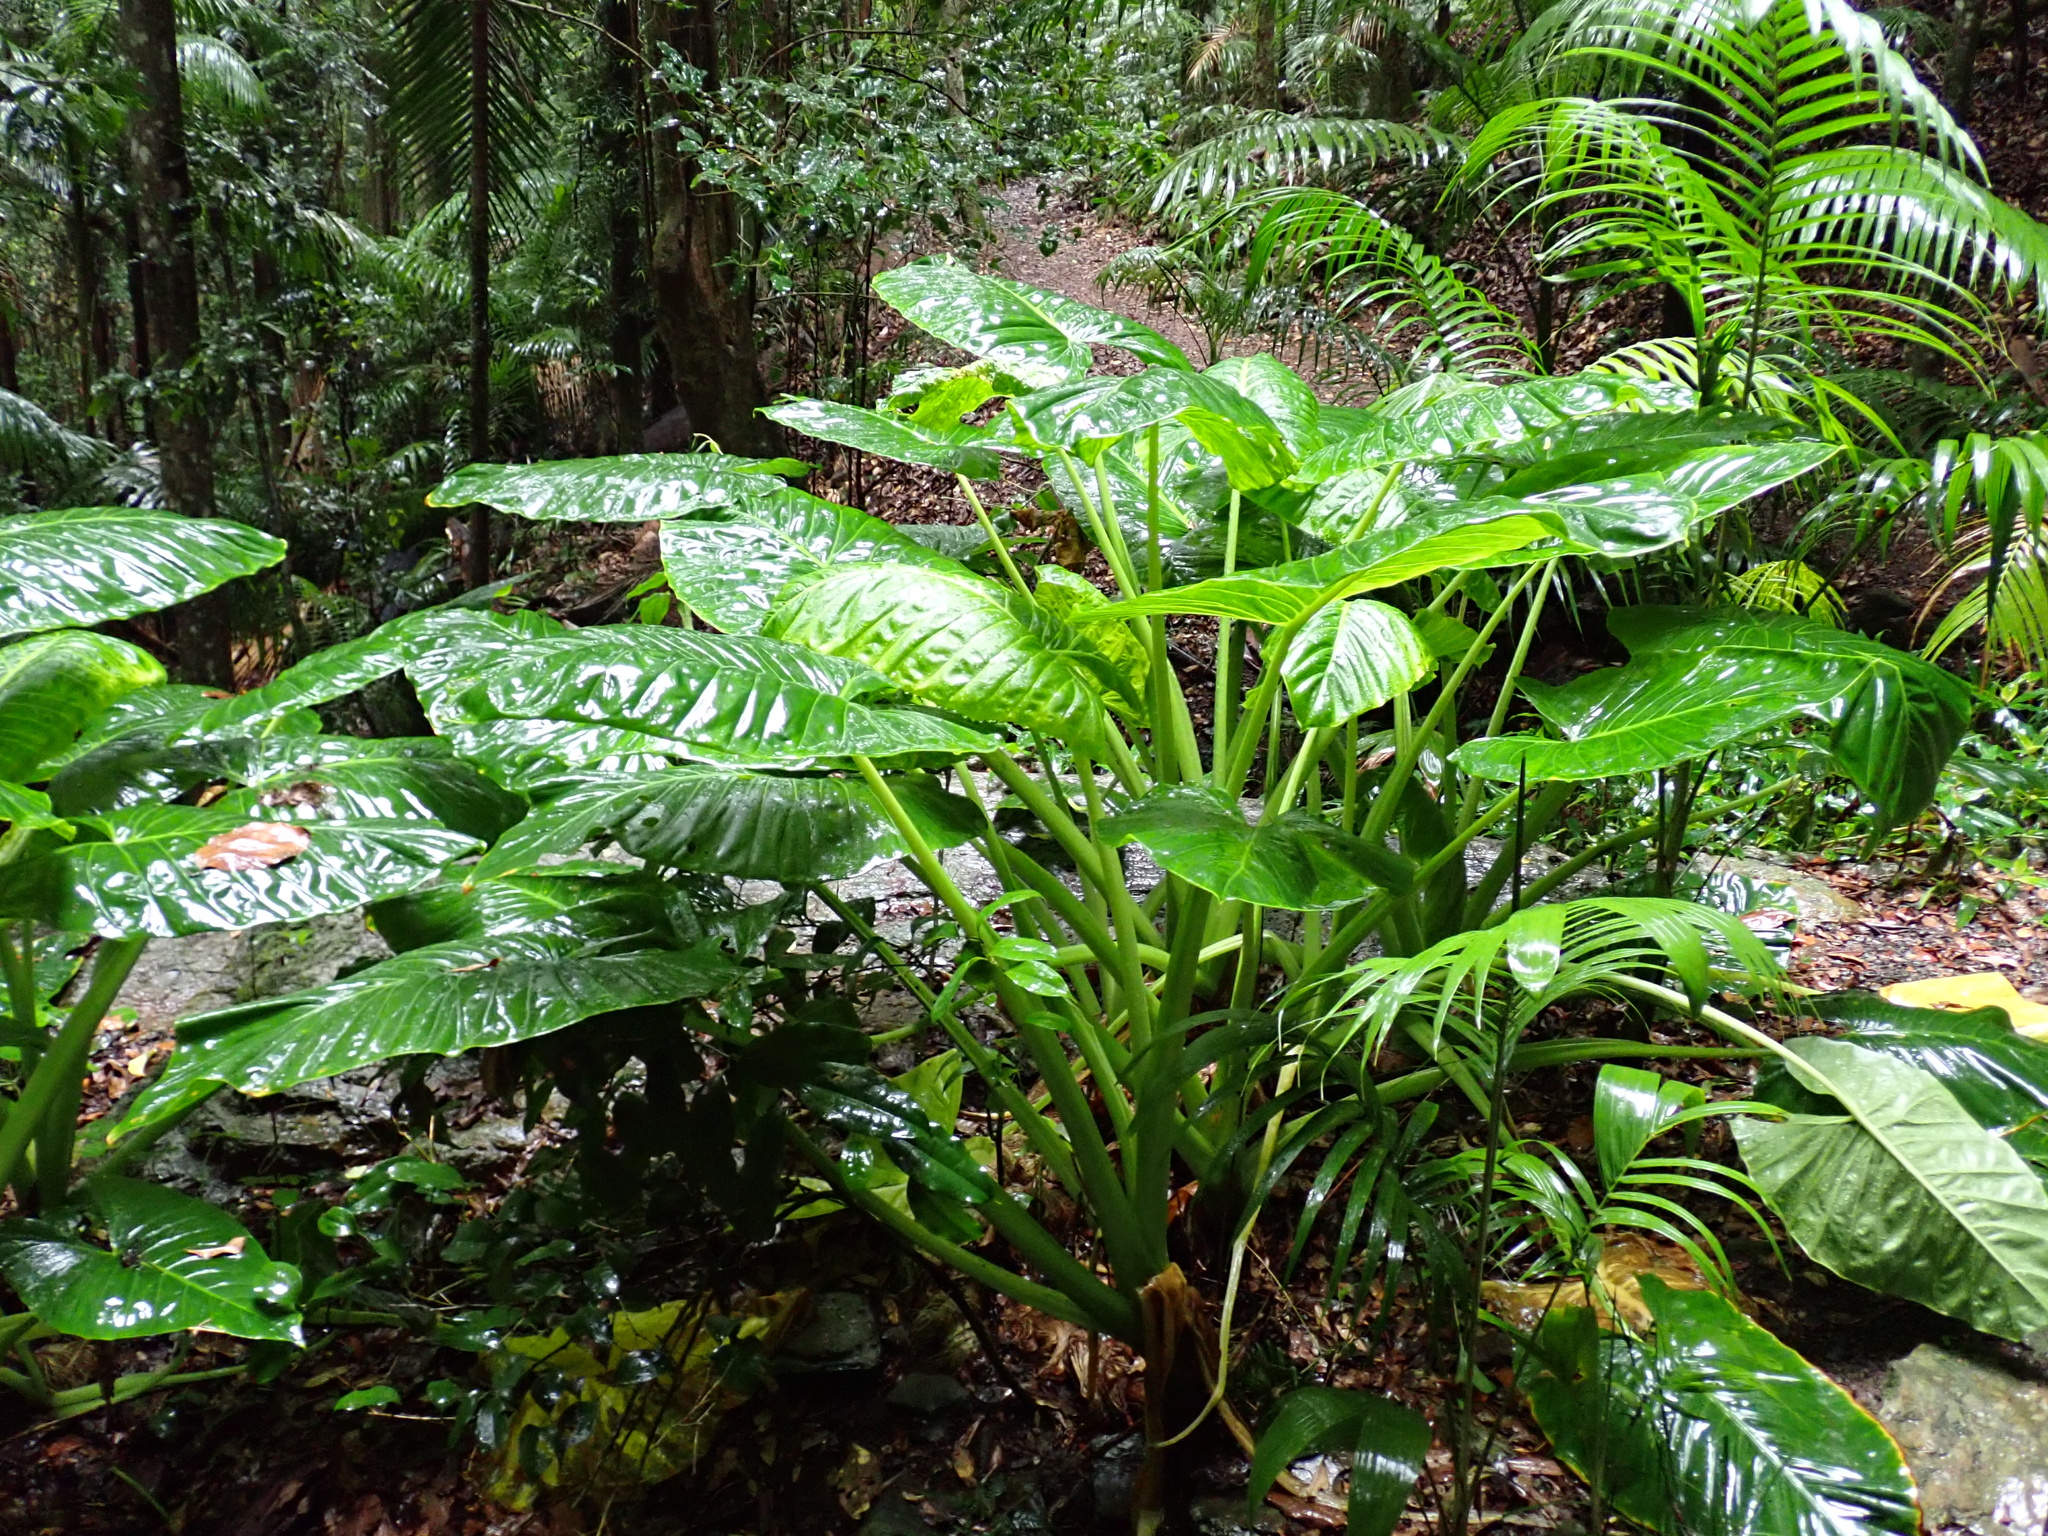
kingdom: Plantae
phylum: Tracheophyta
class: Liliopsida
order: Alismatales
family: Araceae
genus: Alocasia
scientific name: Alocasia brisbanensis
